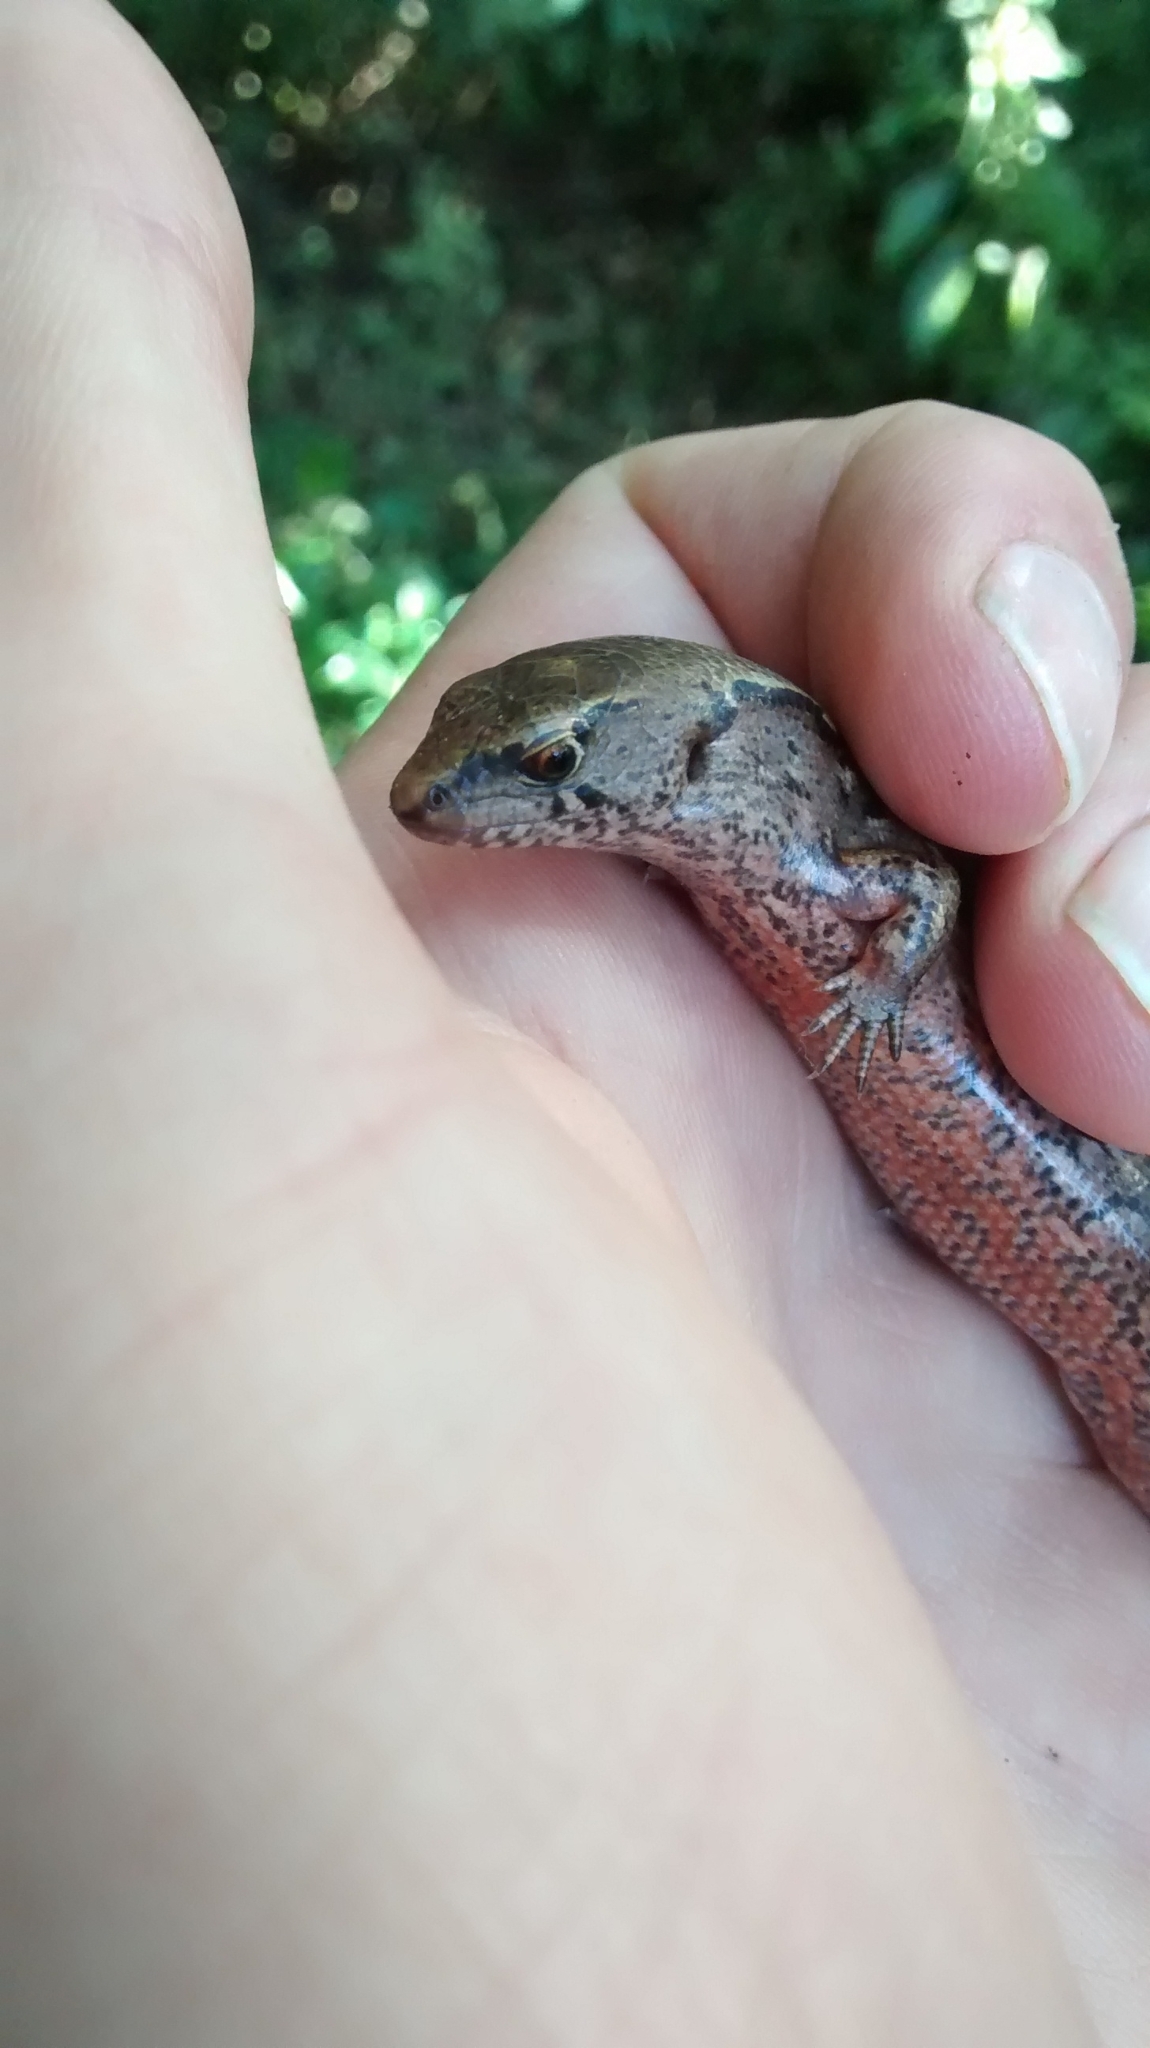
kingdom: Animalia
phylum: Chordata
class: Squamata
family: Scincidae
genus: Oligosoma
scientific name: Oligosoma ornatum
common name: Gray's ornate skink
